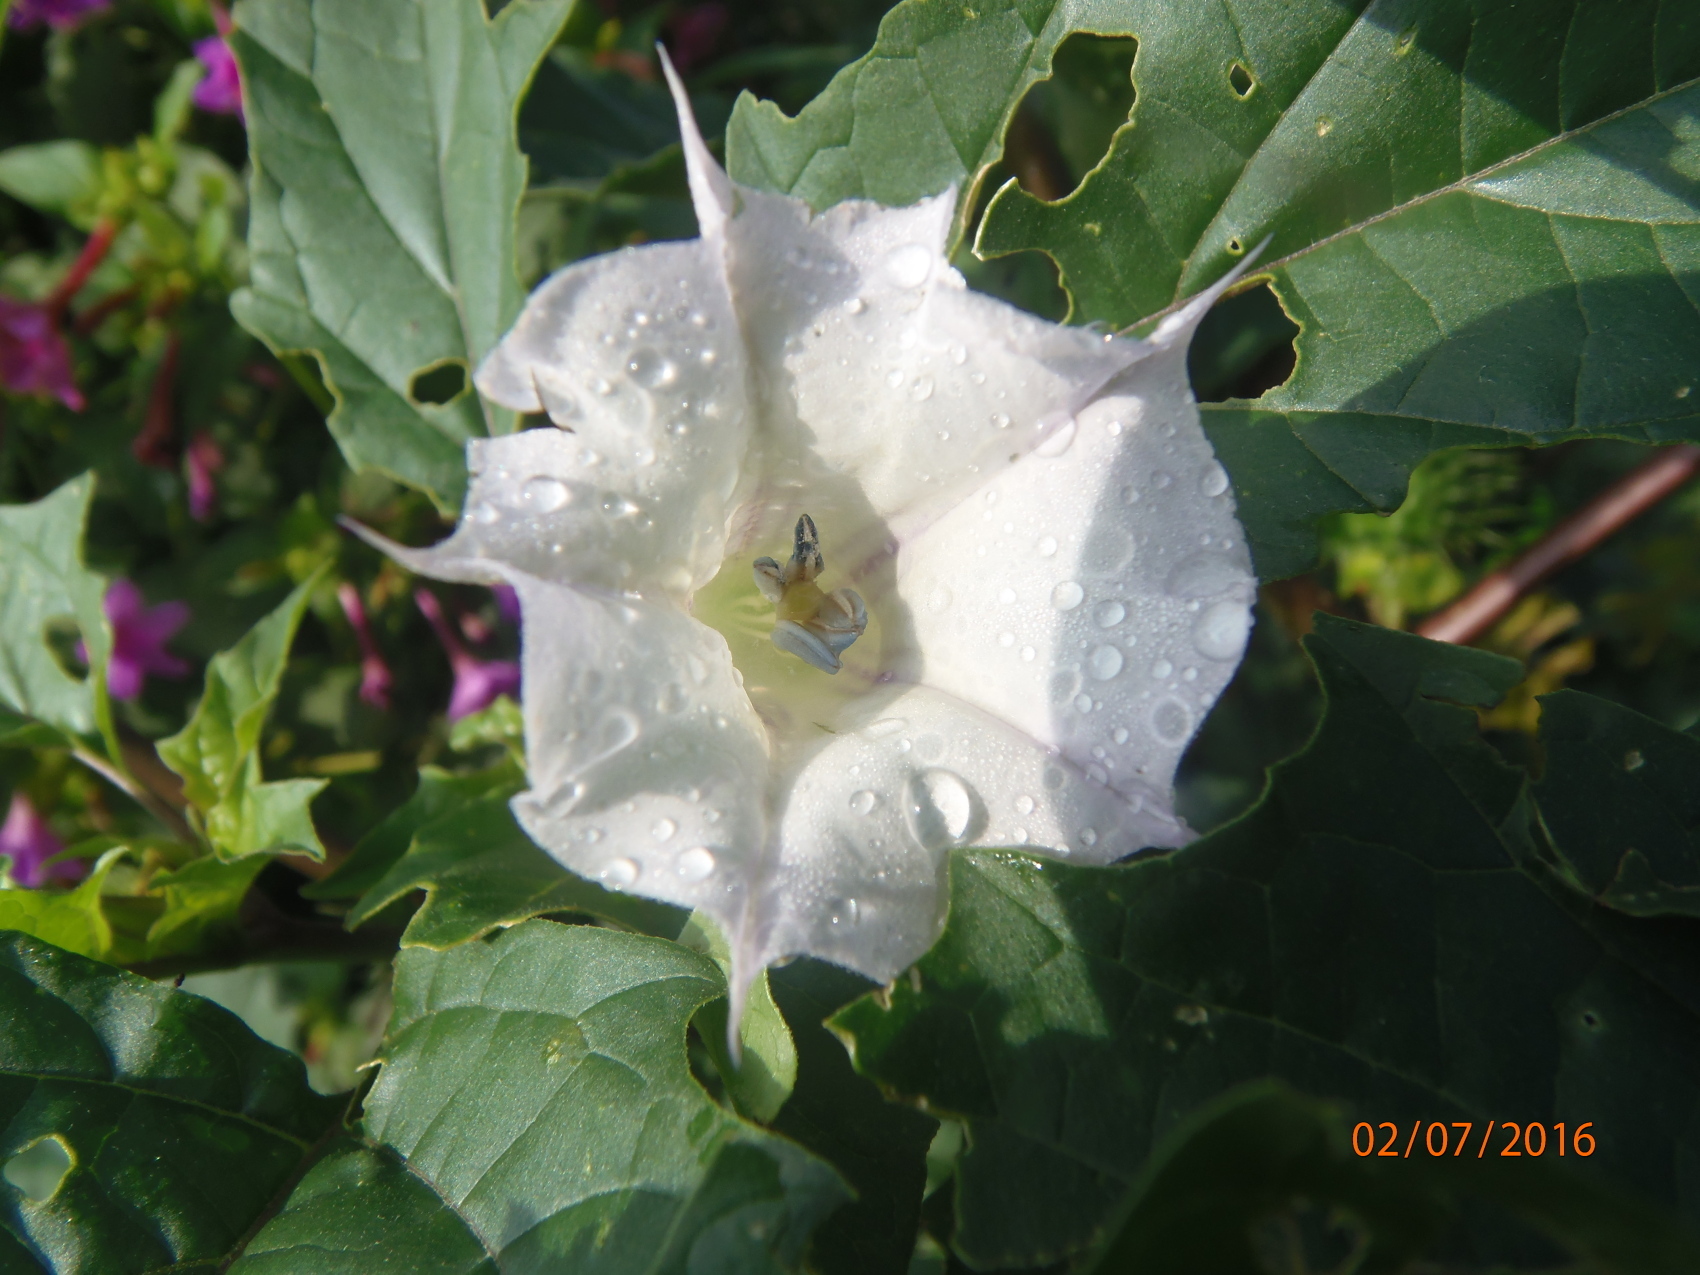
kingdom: Plantae
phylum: Tracheophyta
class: Magnoliopsida
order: Solanales
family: Solanaceae
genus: Datura
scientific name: Datura stramonium
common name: Thorn-apple
